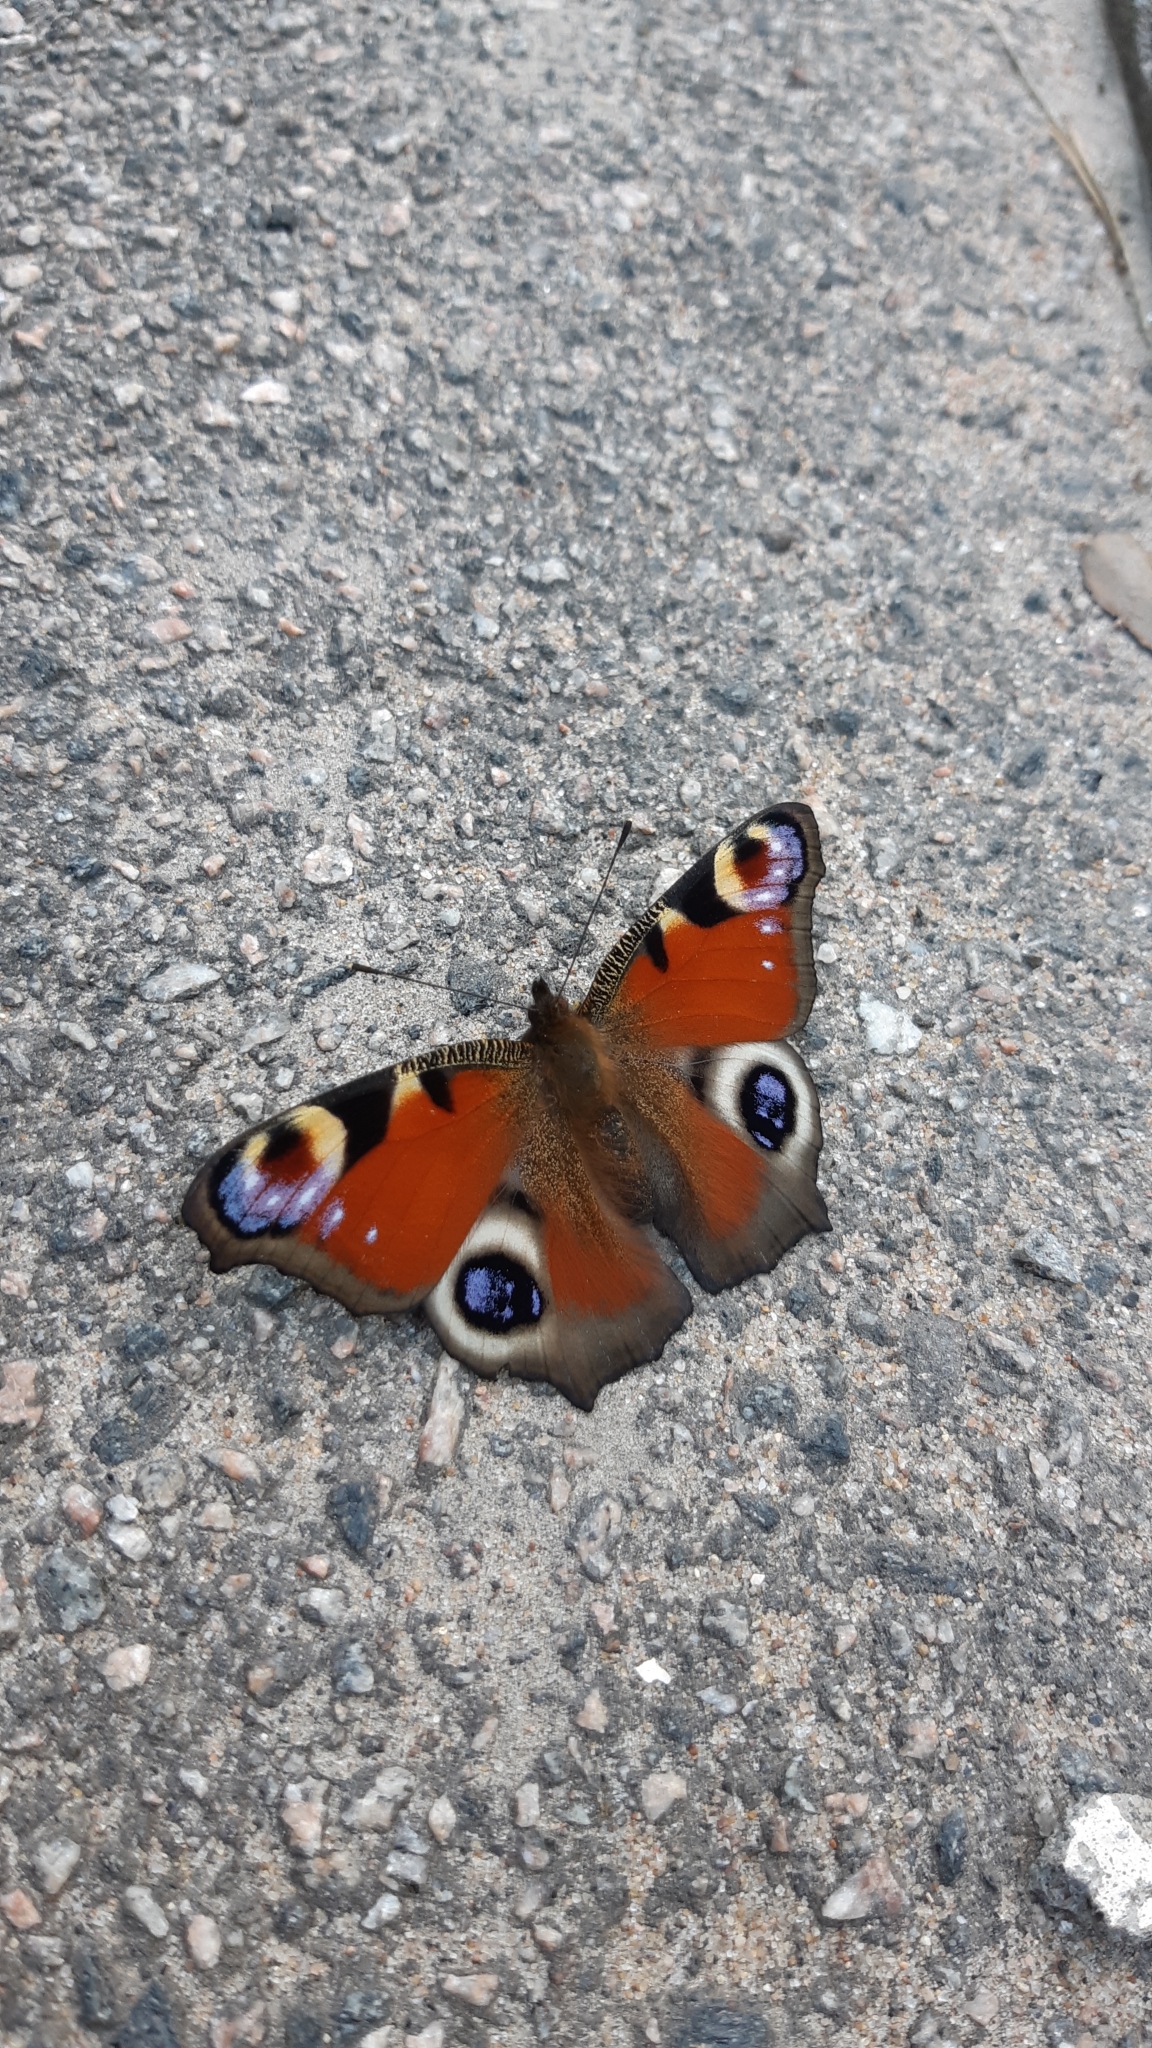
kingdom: Animalia
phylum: Arthropoda
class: Insecta
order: Lepidoptera
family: Nymphalidae
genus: Aglais
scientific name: Aglais io
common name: Peacock
